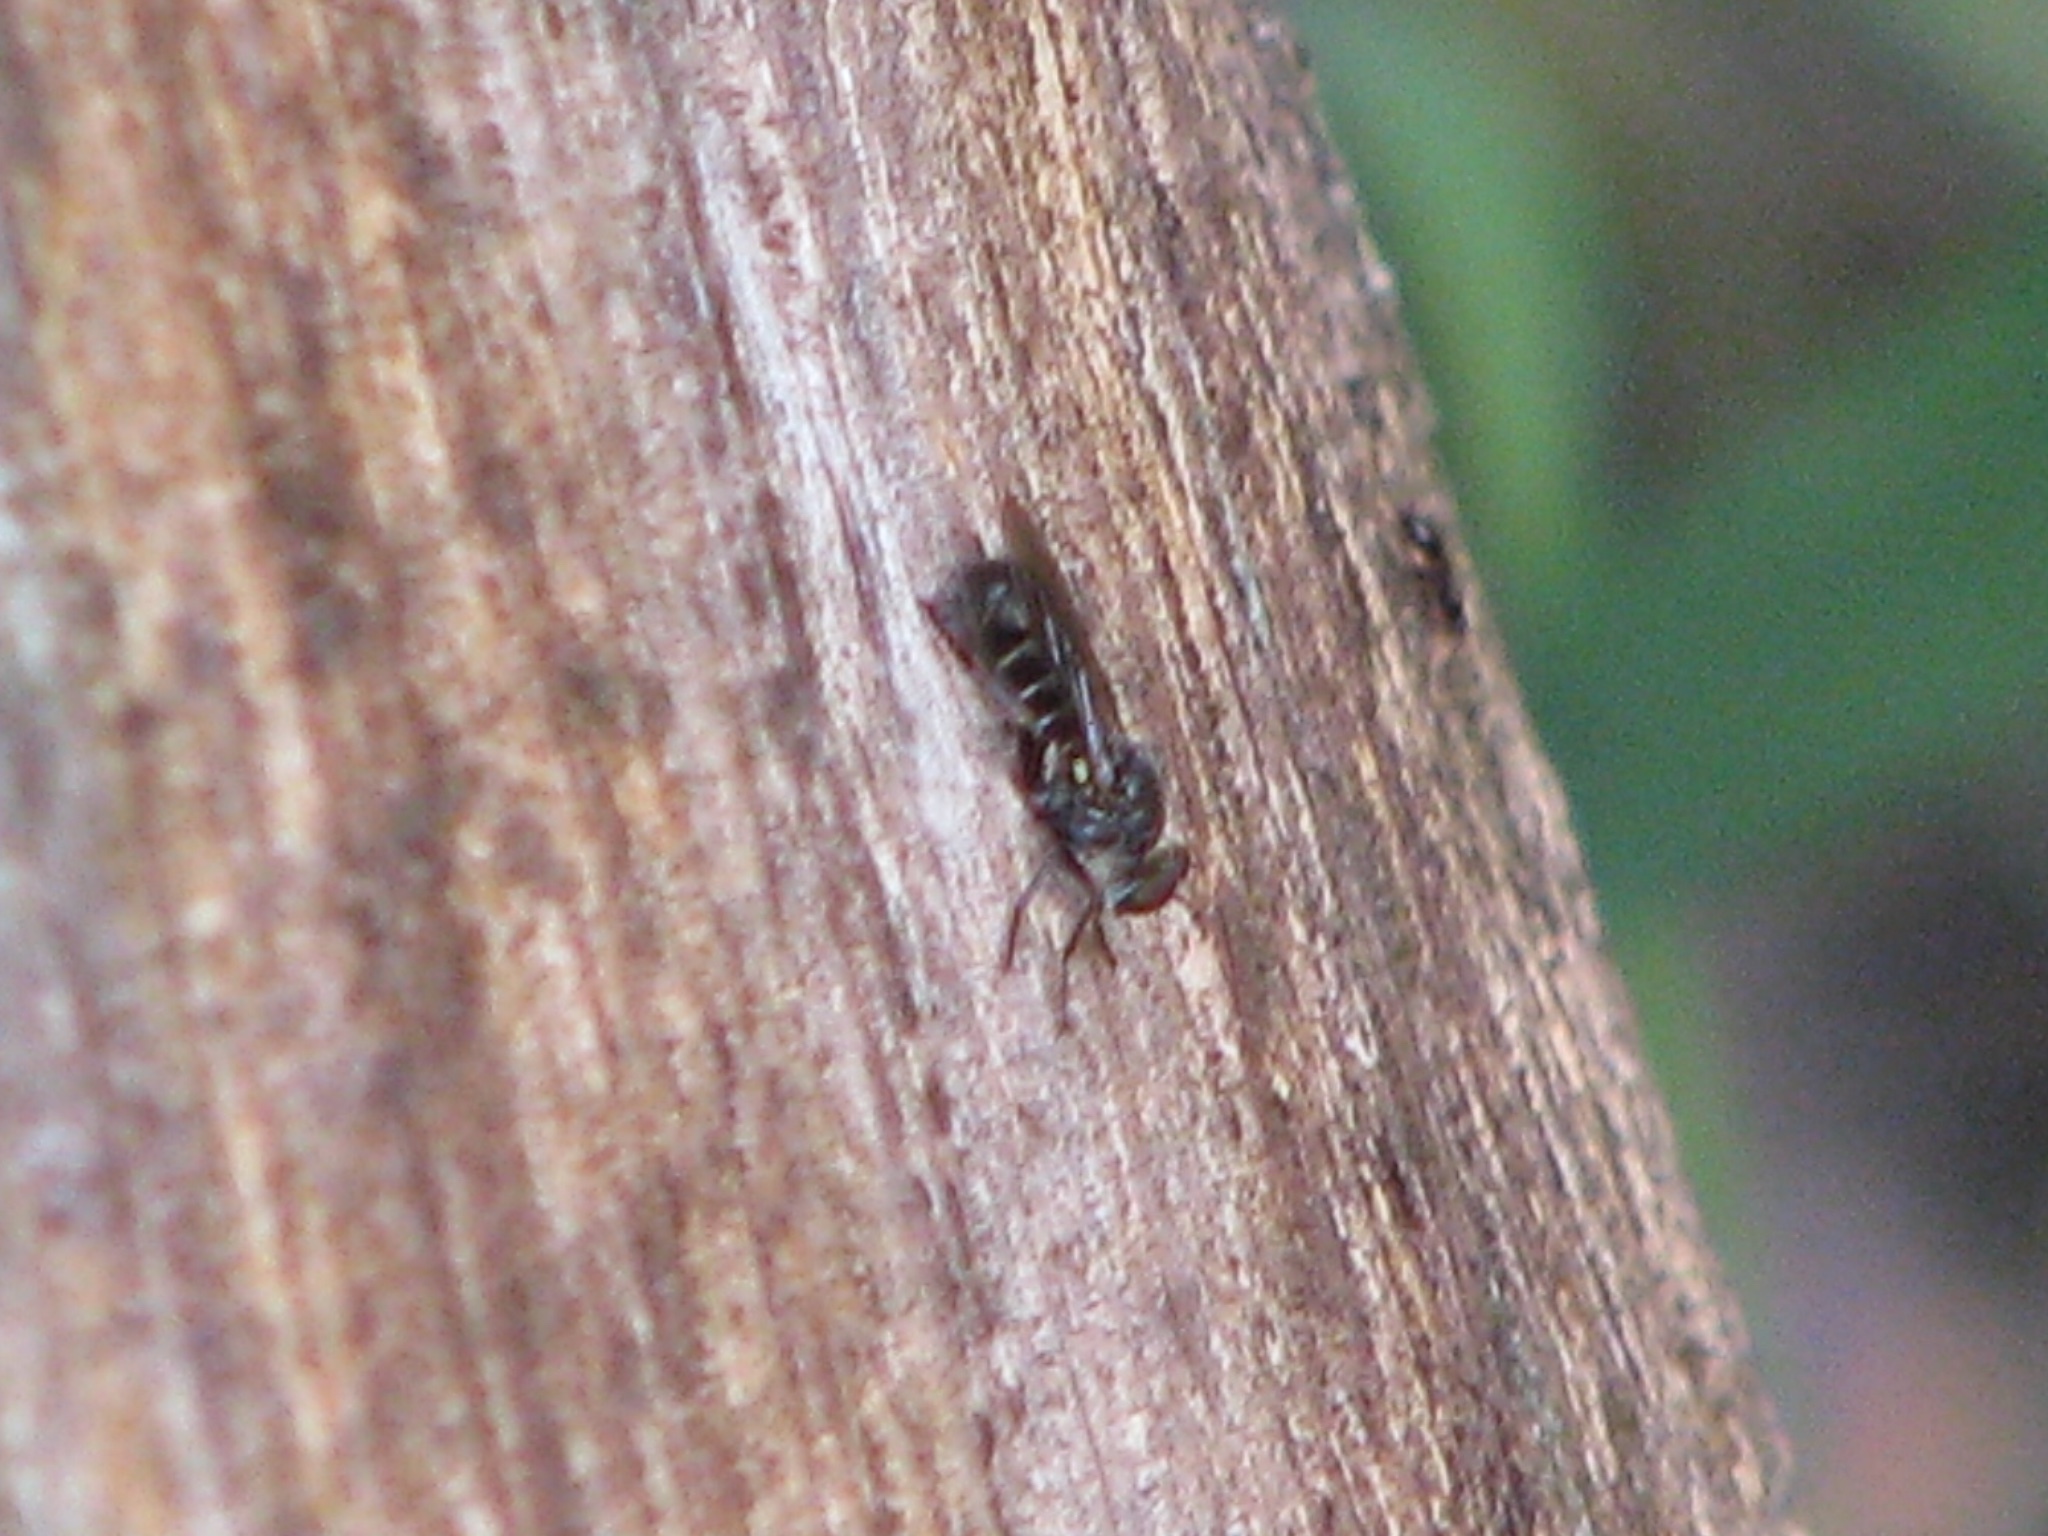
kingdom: Animalia
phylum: Arthropoda
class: Insecta
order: Diptera
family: Asilidae
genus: Atomosia
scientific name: Atomosia puella
